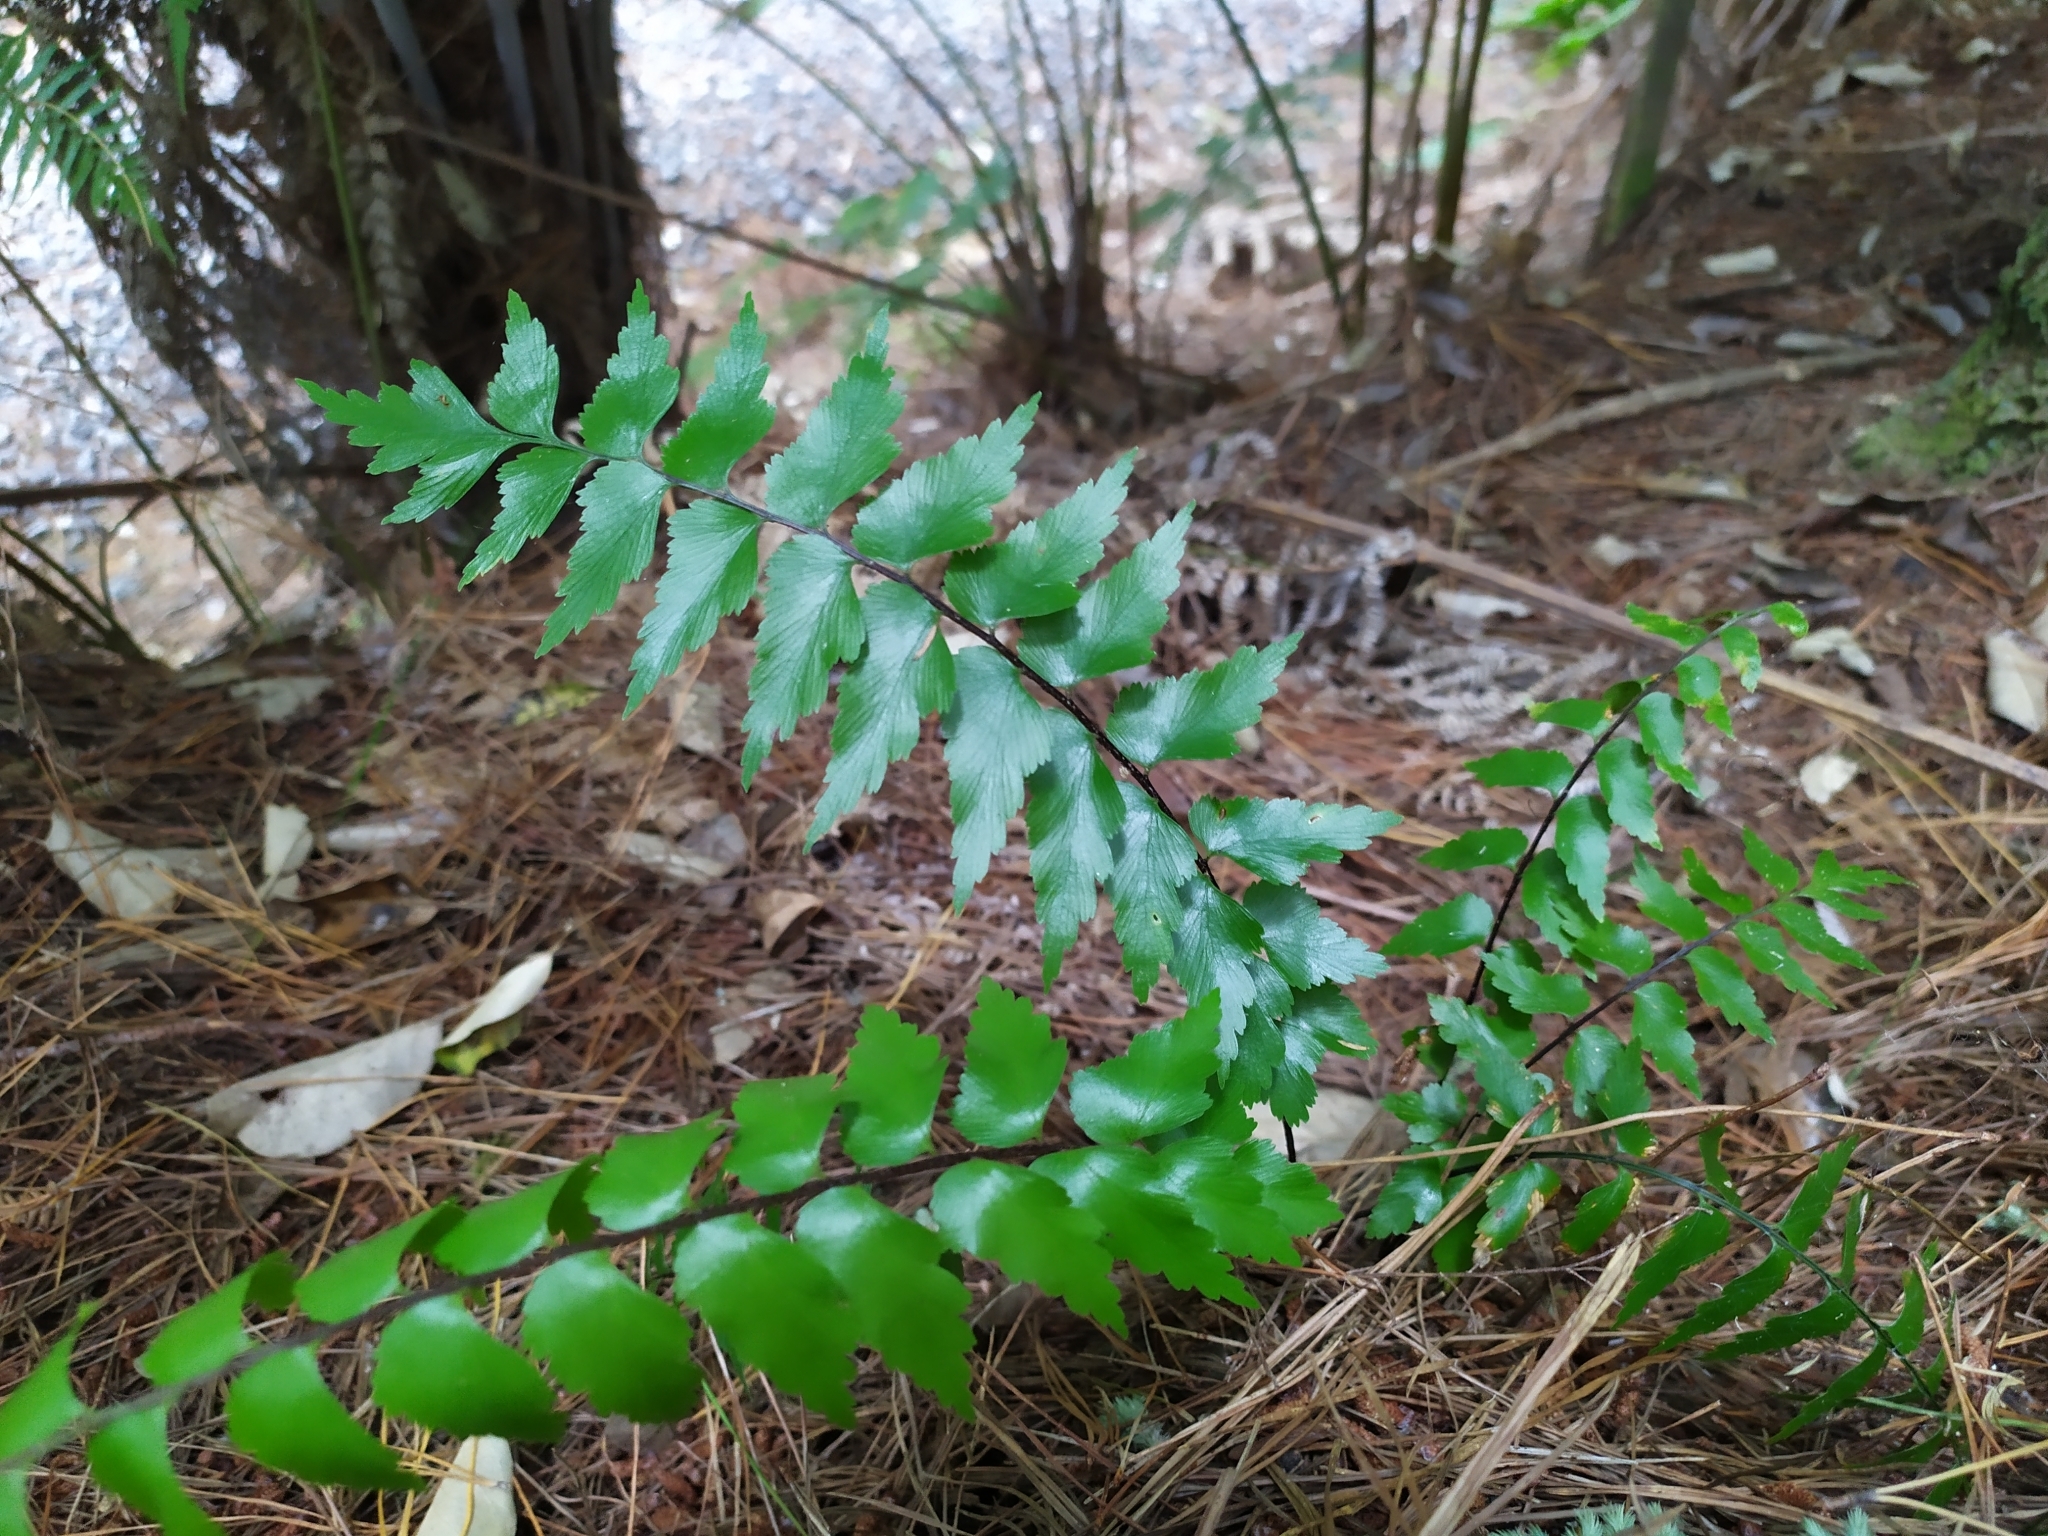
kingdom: Plantae
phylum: Tracheophyta
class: Polypodiopsida
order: Polypodiales
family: Aspleniaceae
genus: Asplenium
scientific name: Asplenium polyodon
